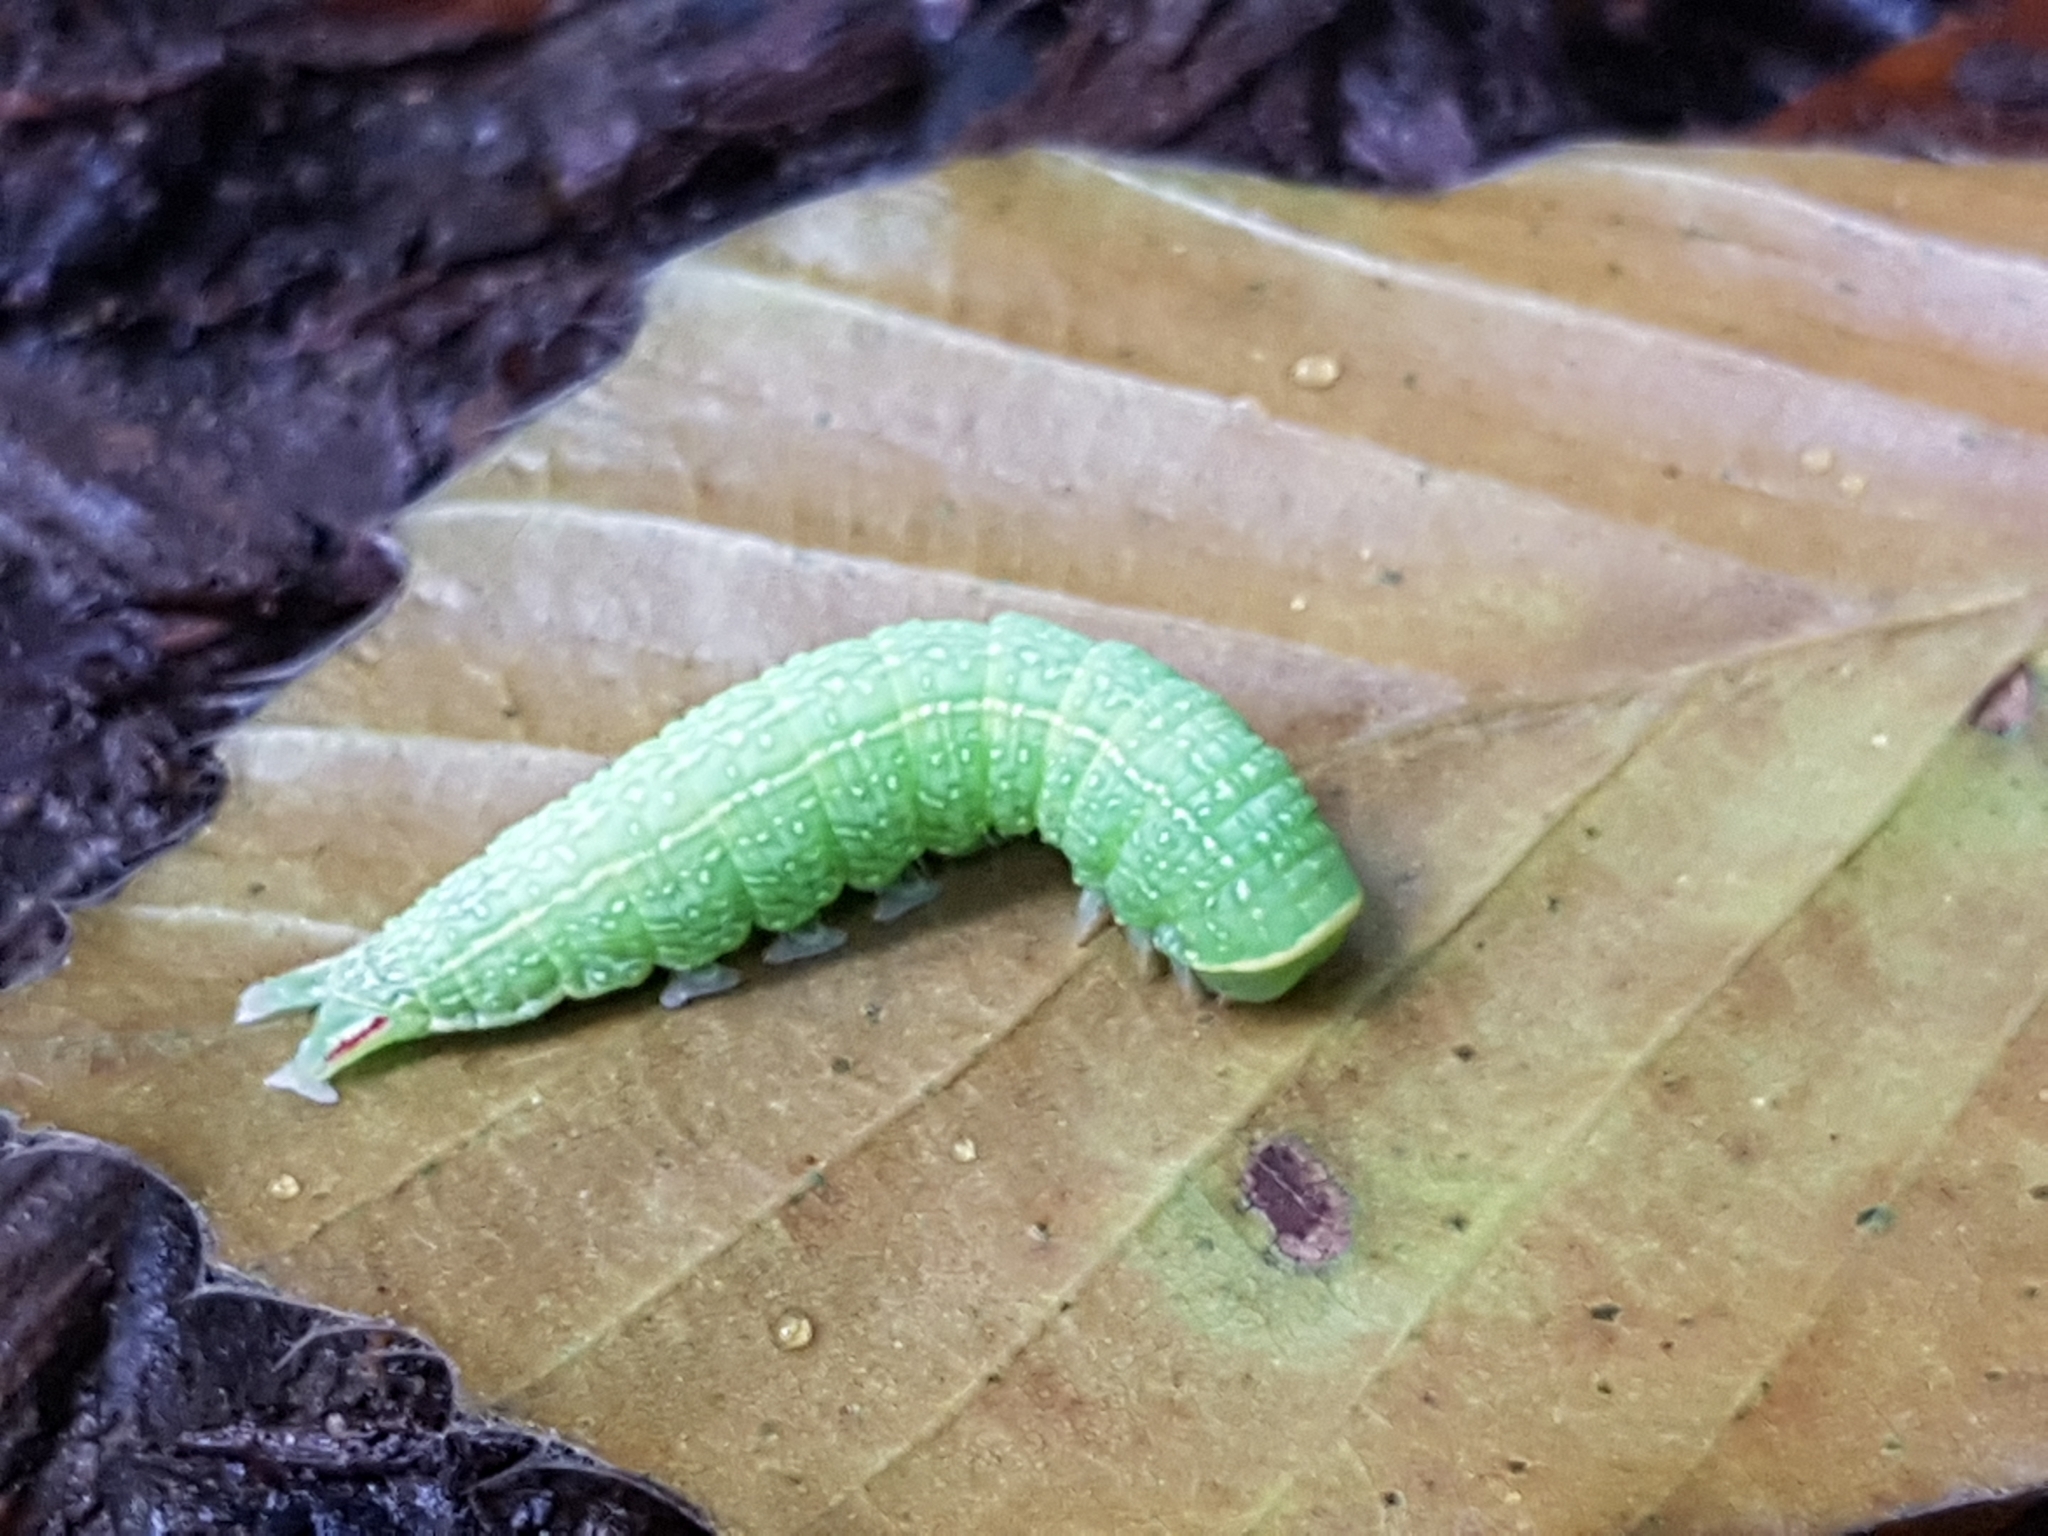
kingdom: Animalia
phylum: Arthropoda
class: Insecta
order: Lepidoptera
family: Nolidae
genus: Pseudoips
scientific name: Pseudoips prasinana
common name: Green silver-lines
